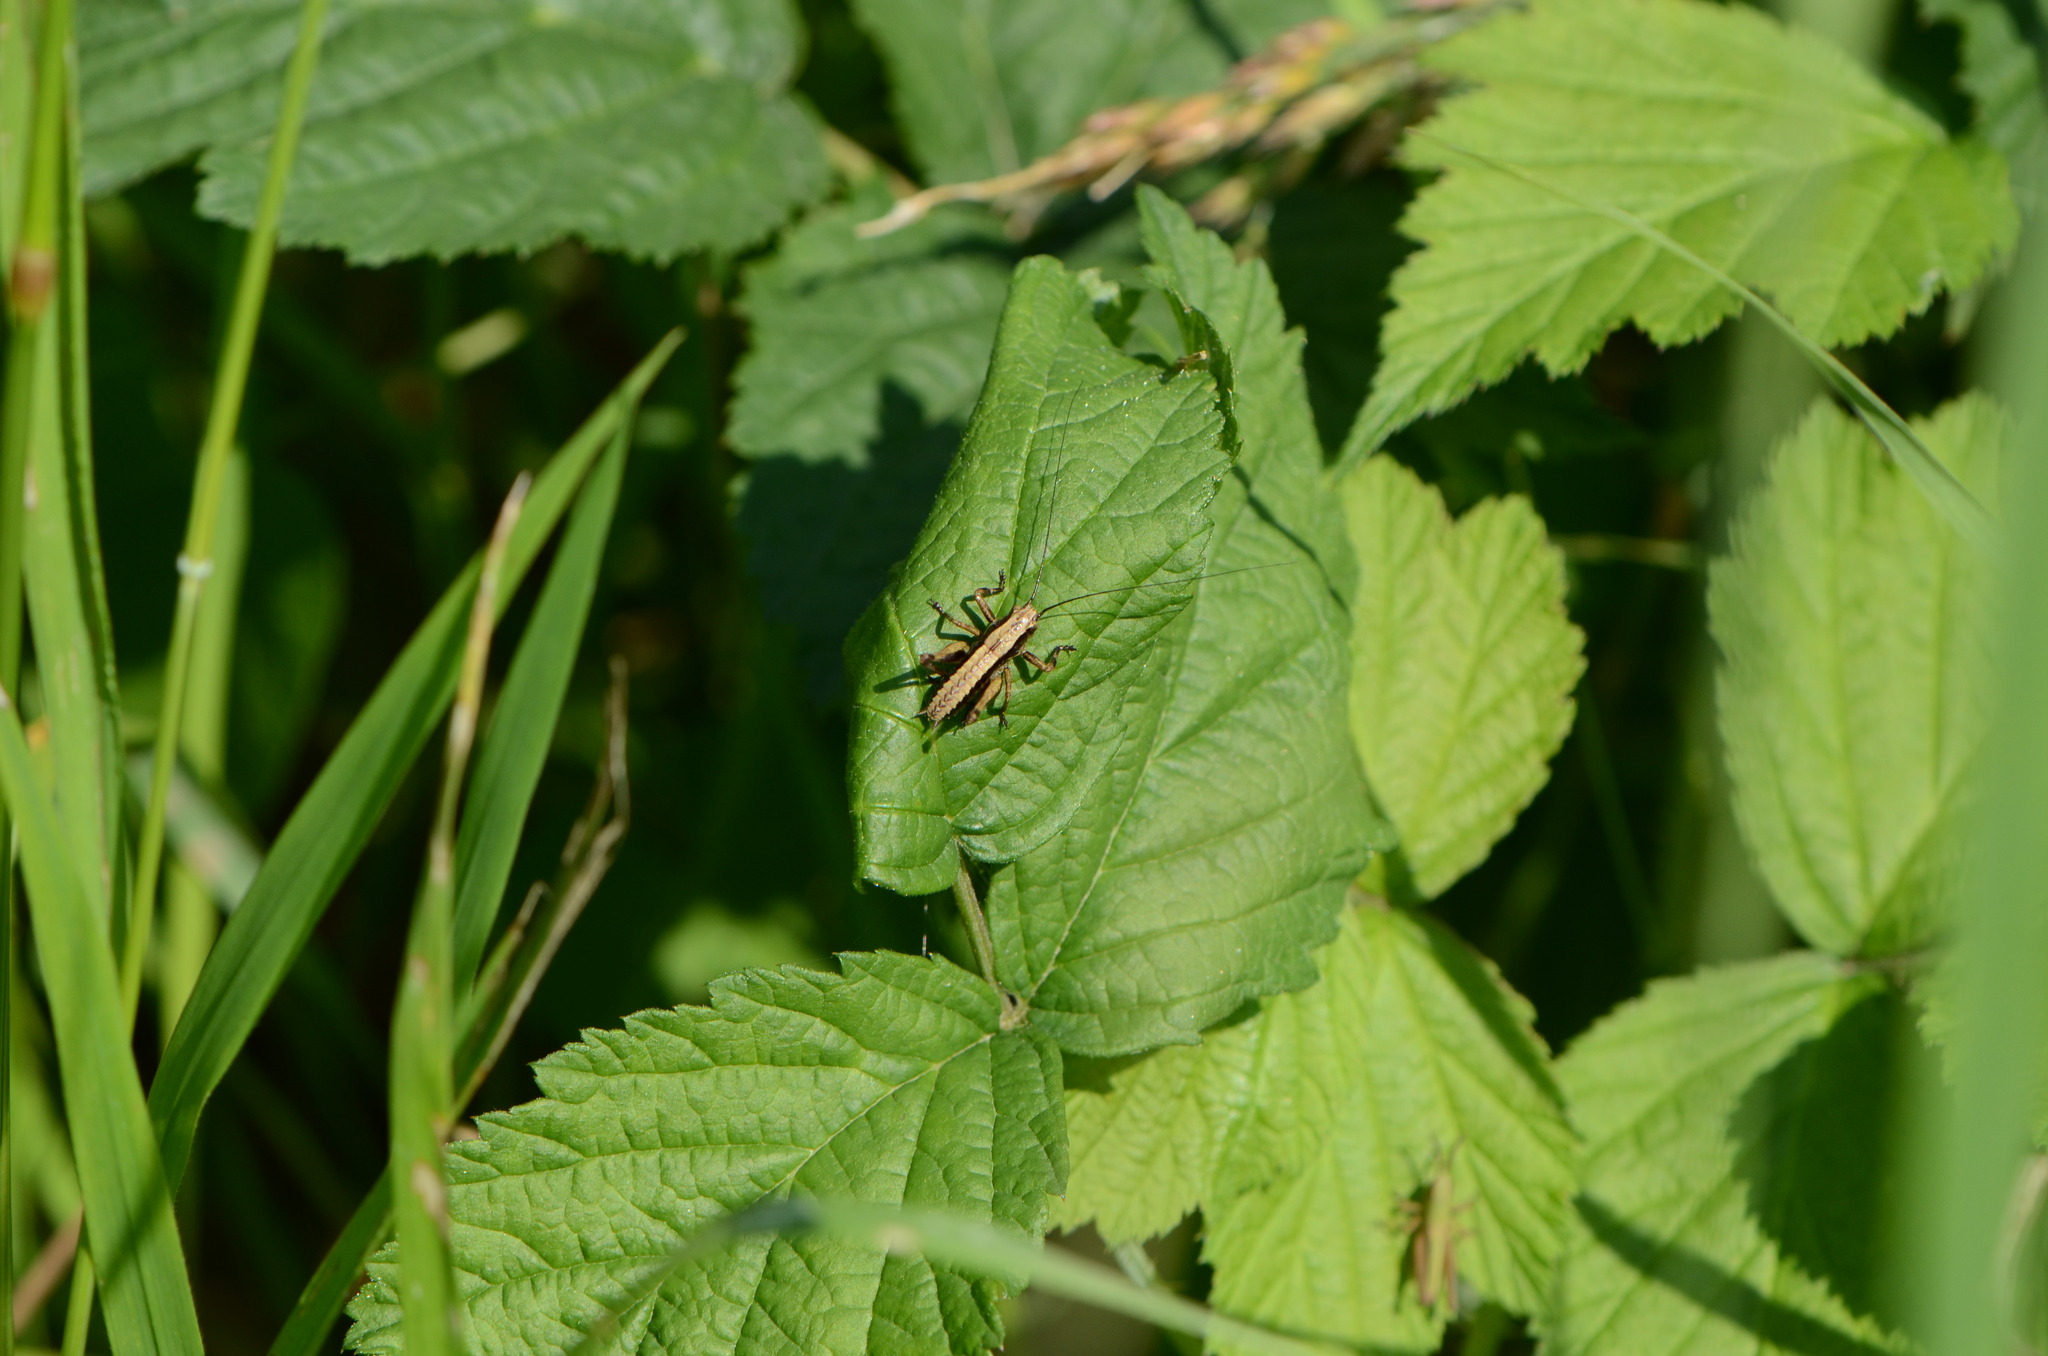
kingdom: Animalia
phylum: Arthropoda
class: Insecta
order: Orthoptera
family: Tettigoniidae
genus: Pholidoptera
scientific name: Pholidoptera griseoaptera
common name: Dark bush-cricket
